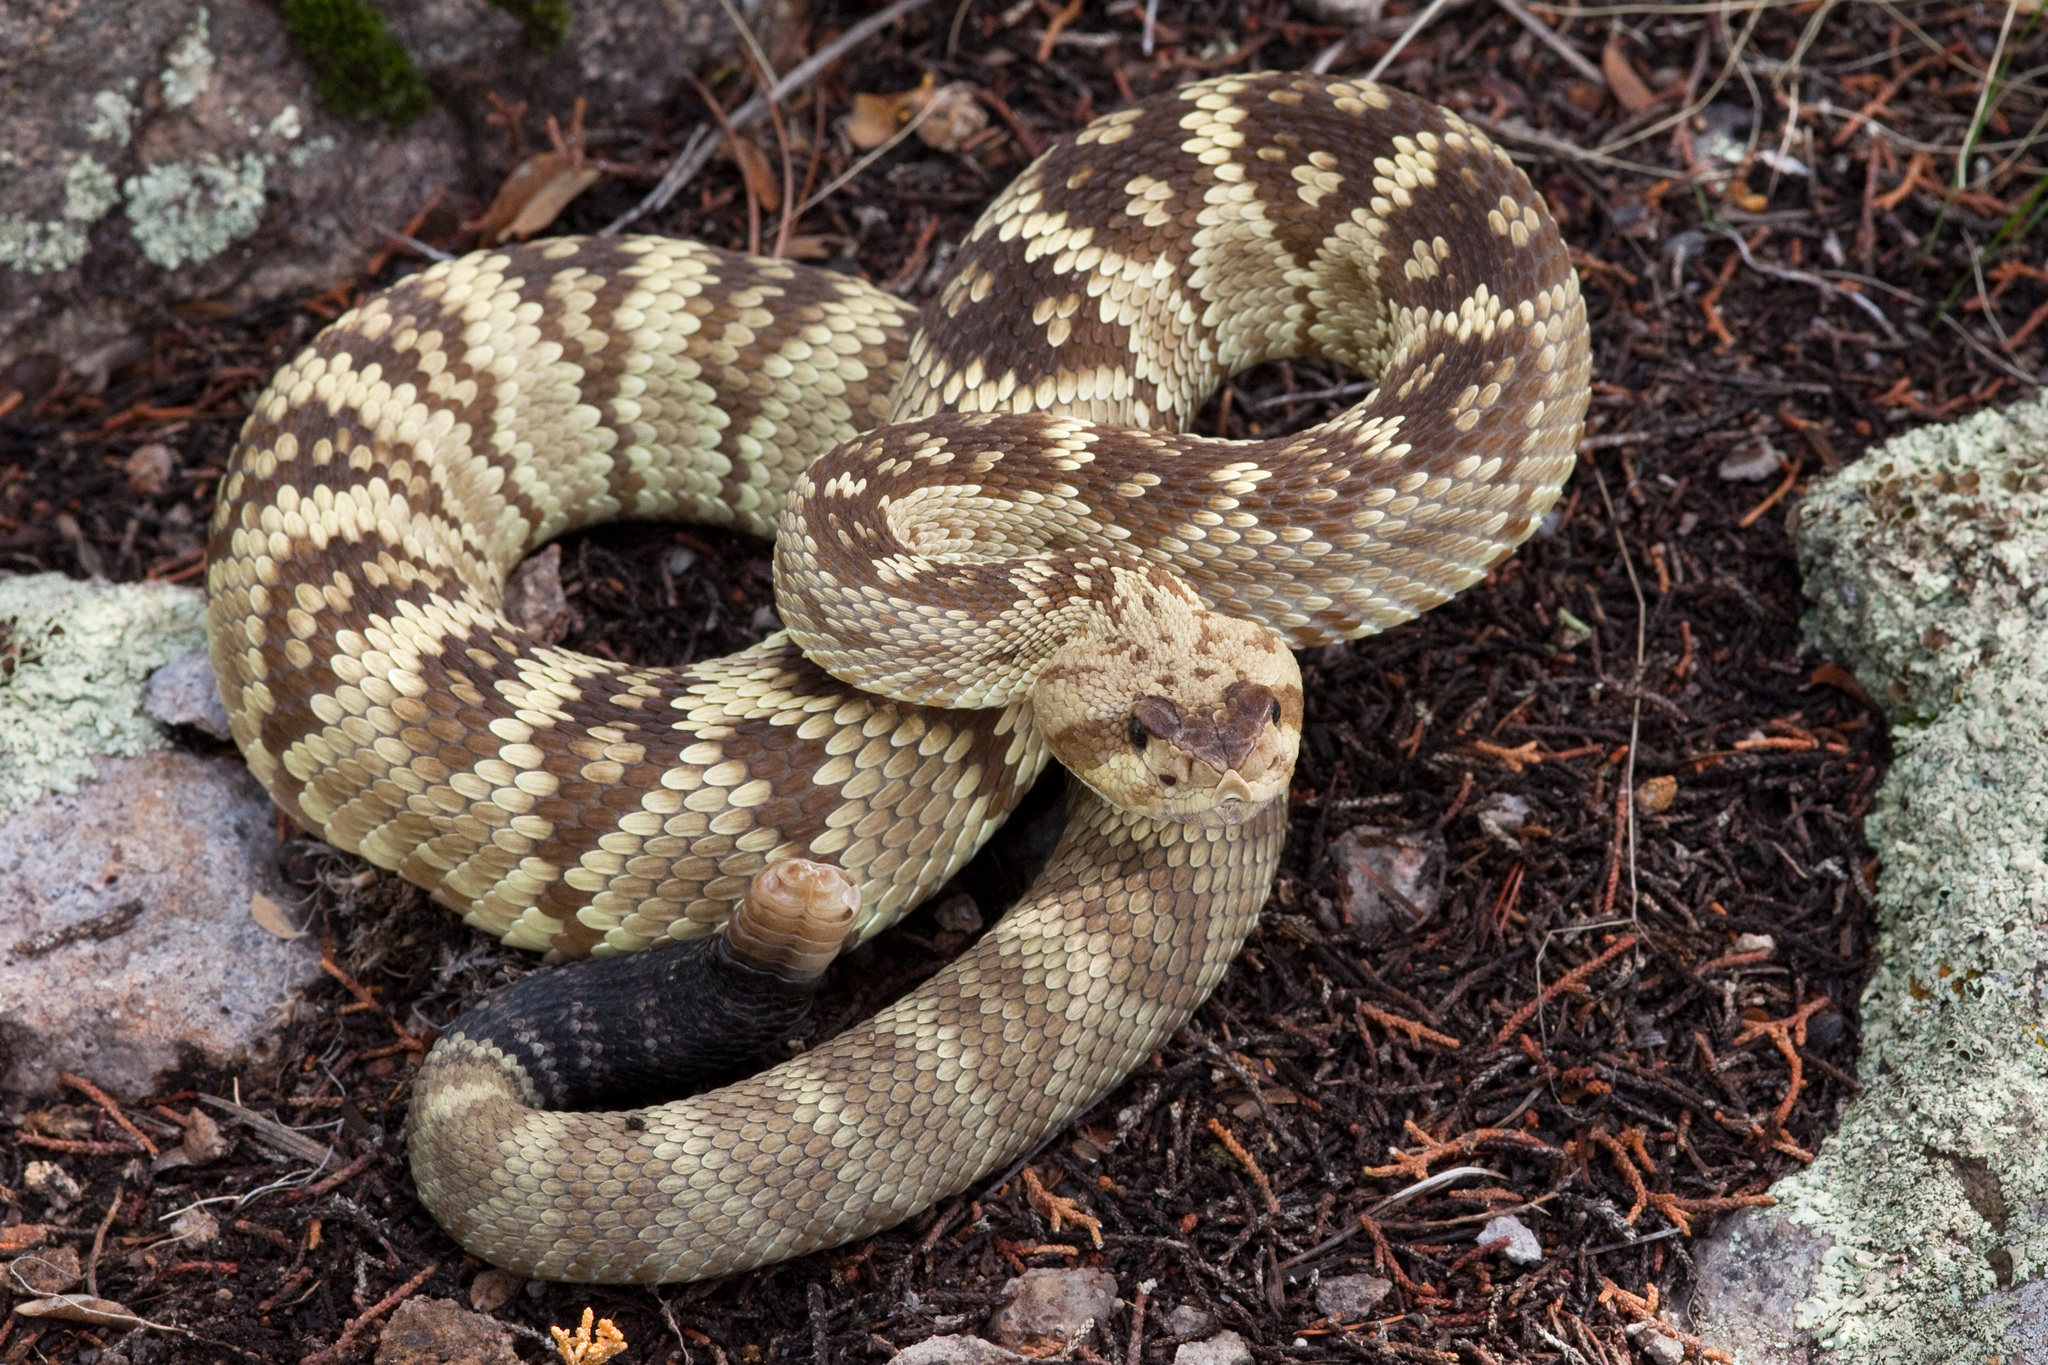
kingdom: Animalia
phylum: Chordata
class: Squamata
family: Viperidae
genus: Crotalus
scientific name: Crotalus molossus
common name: Black tailed rattlesnake
